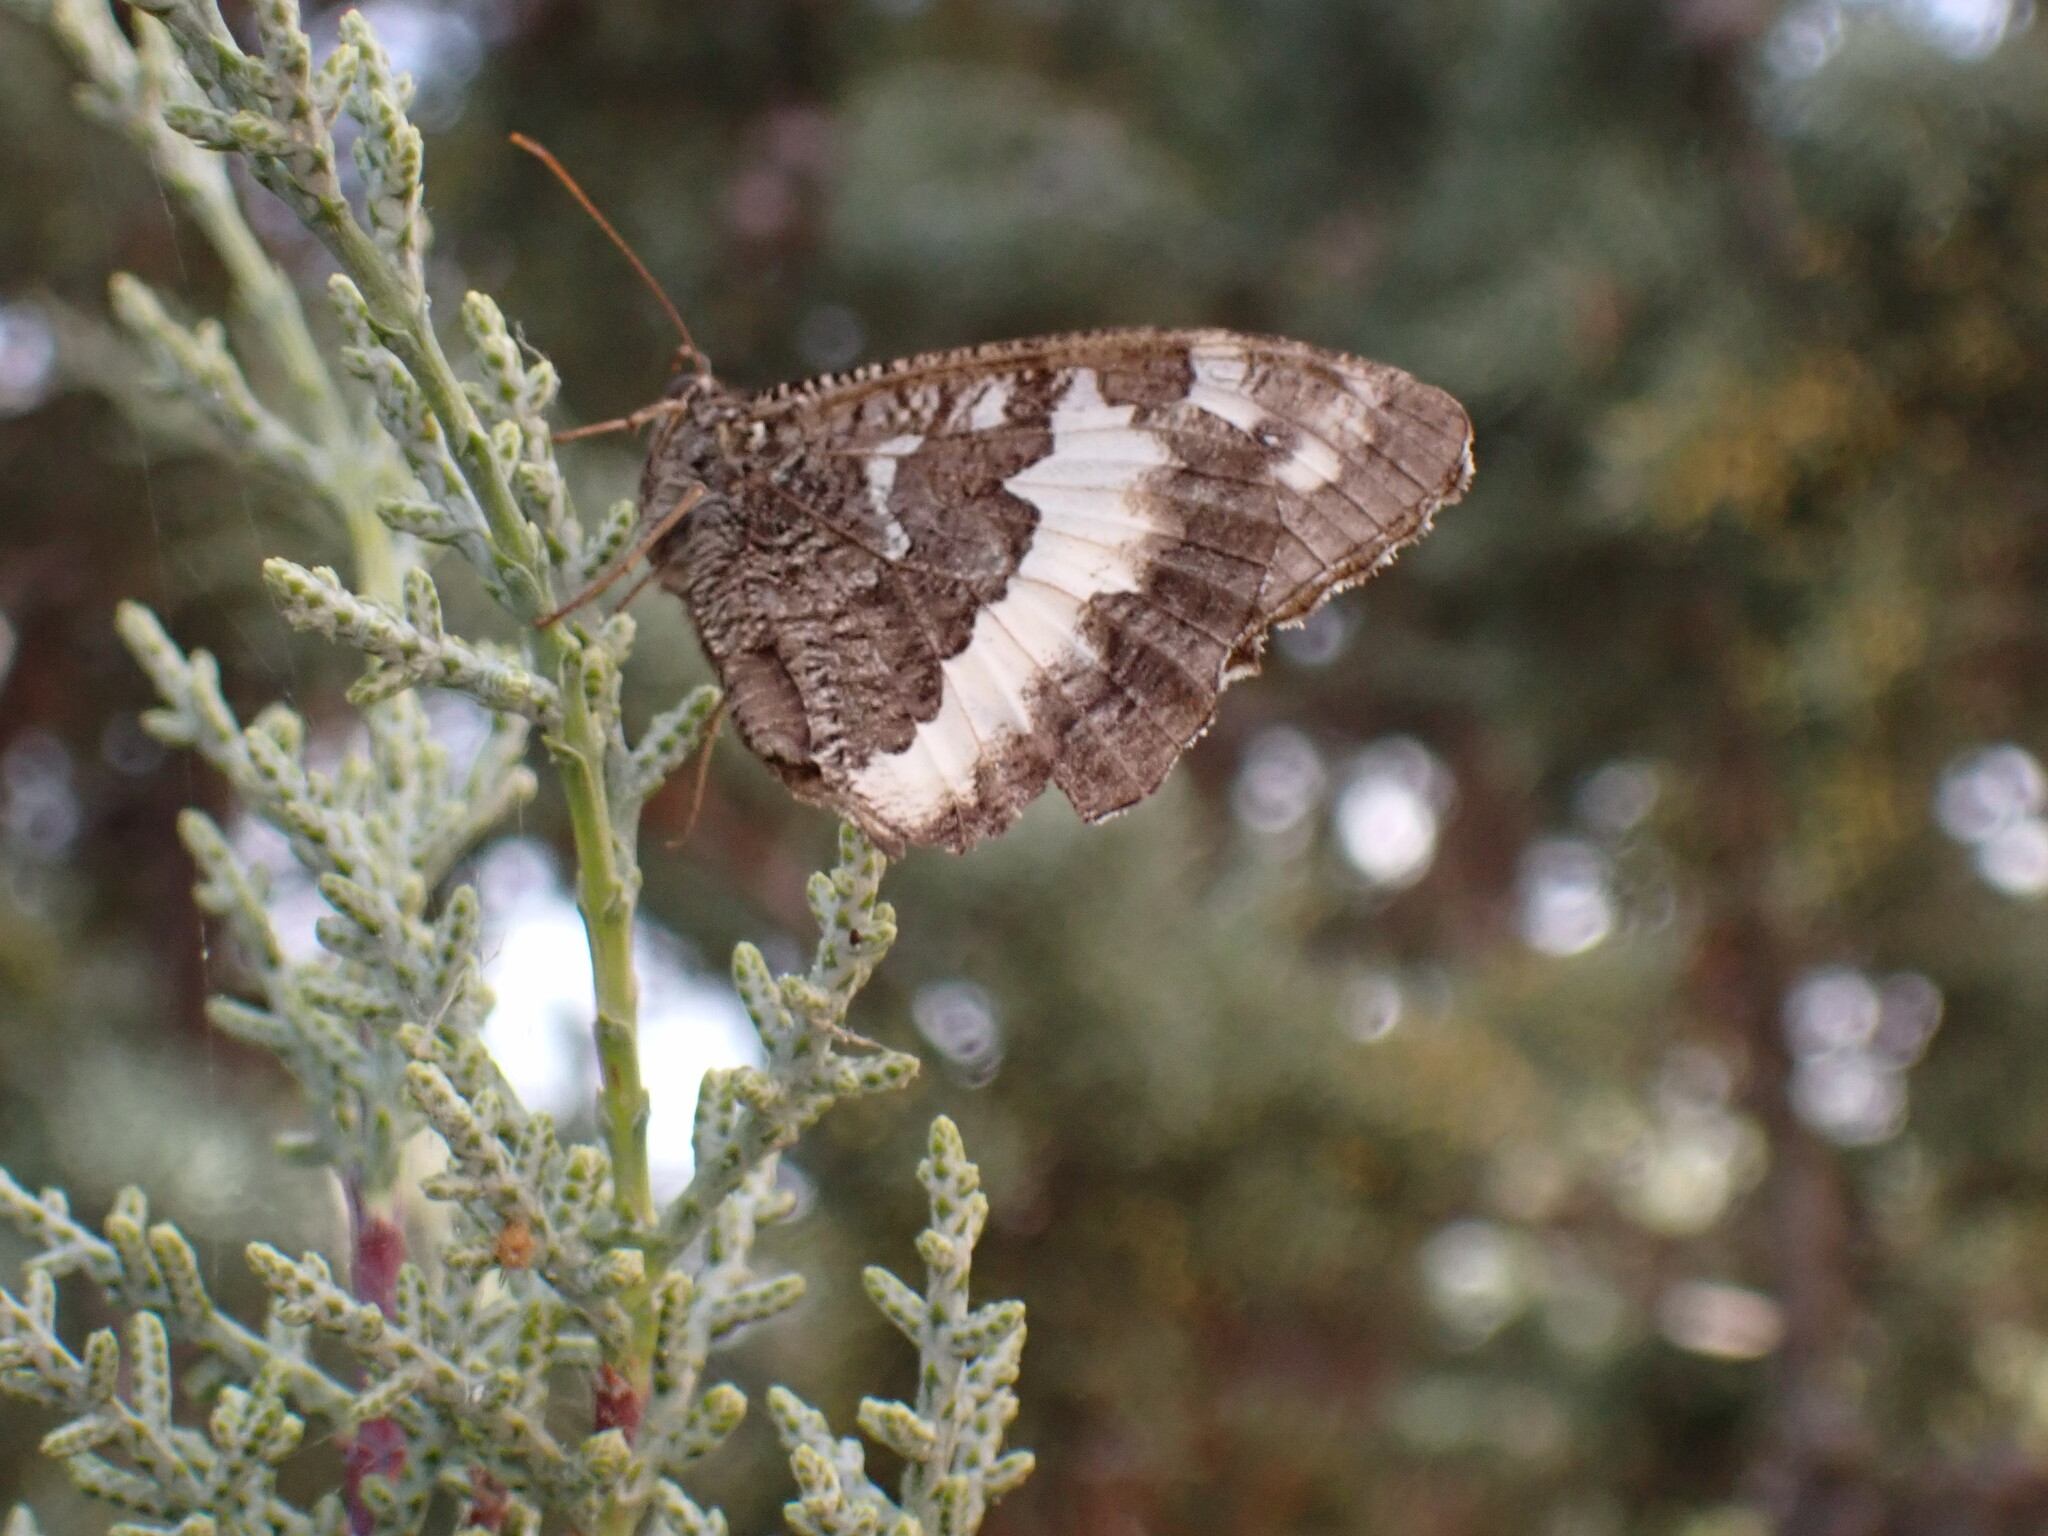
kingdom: Animalia
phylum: Arthropoda
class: Insecta
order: Lepidoptera
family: Lycaenidae
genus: Loweia
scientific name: Loweia tityrus
